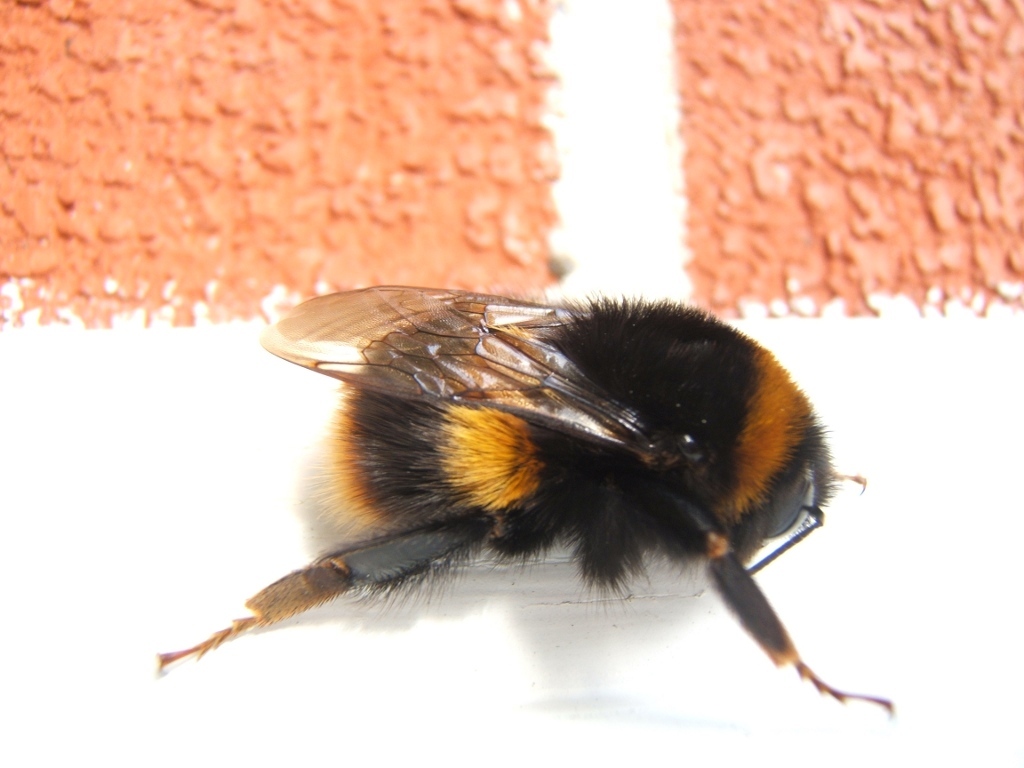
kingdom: Animalia
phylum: Arthropoda
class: Insecta
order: Hymenoptera
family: Apidae
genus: Bombus
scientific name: Bombus terrestris
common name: Buff-tailed bumblebee
